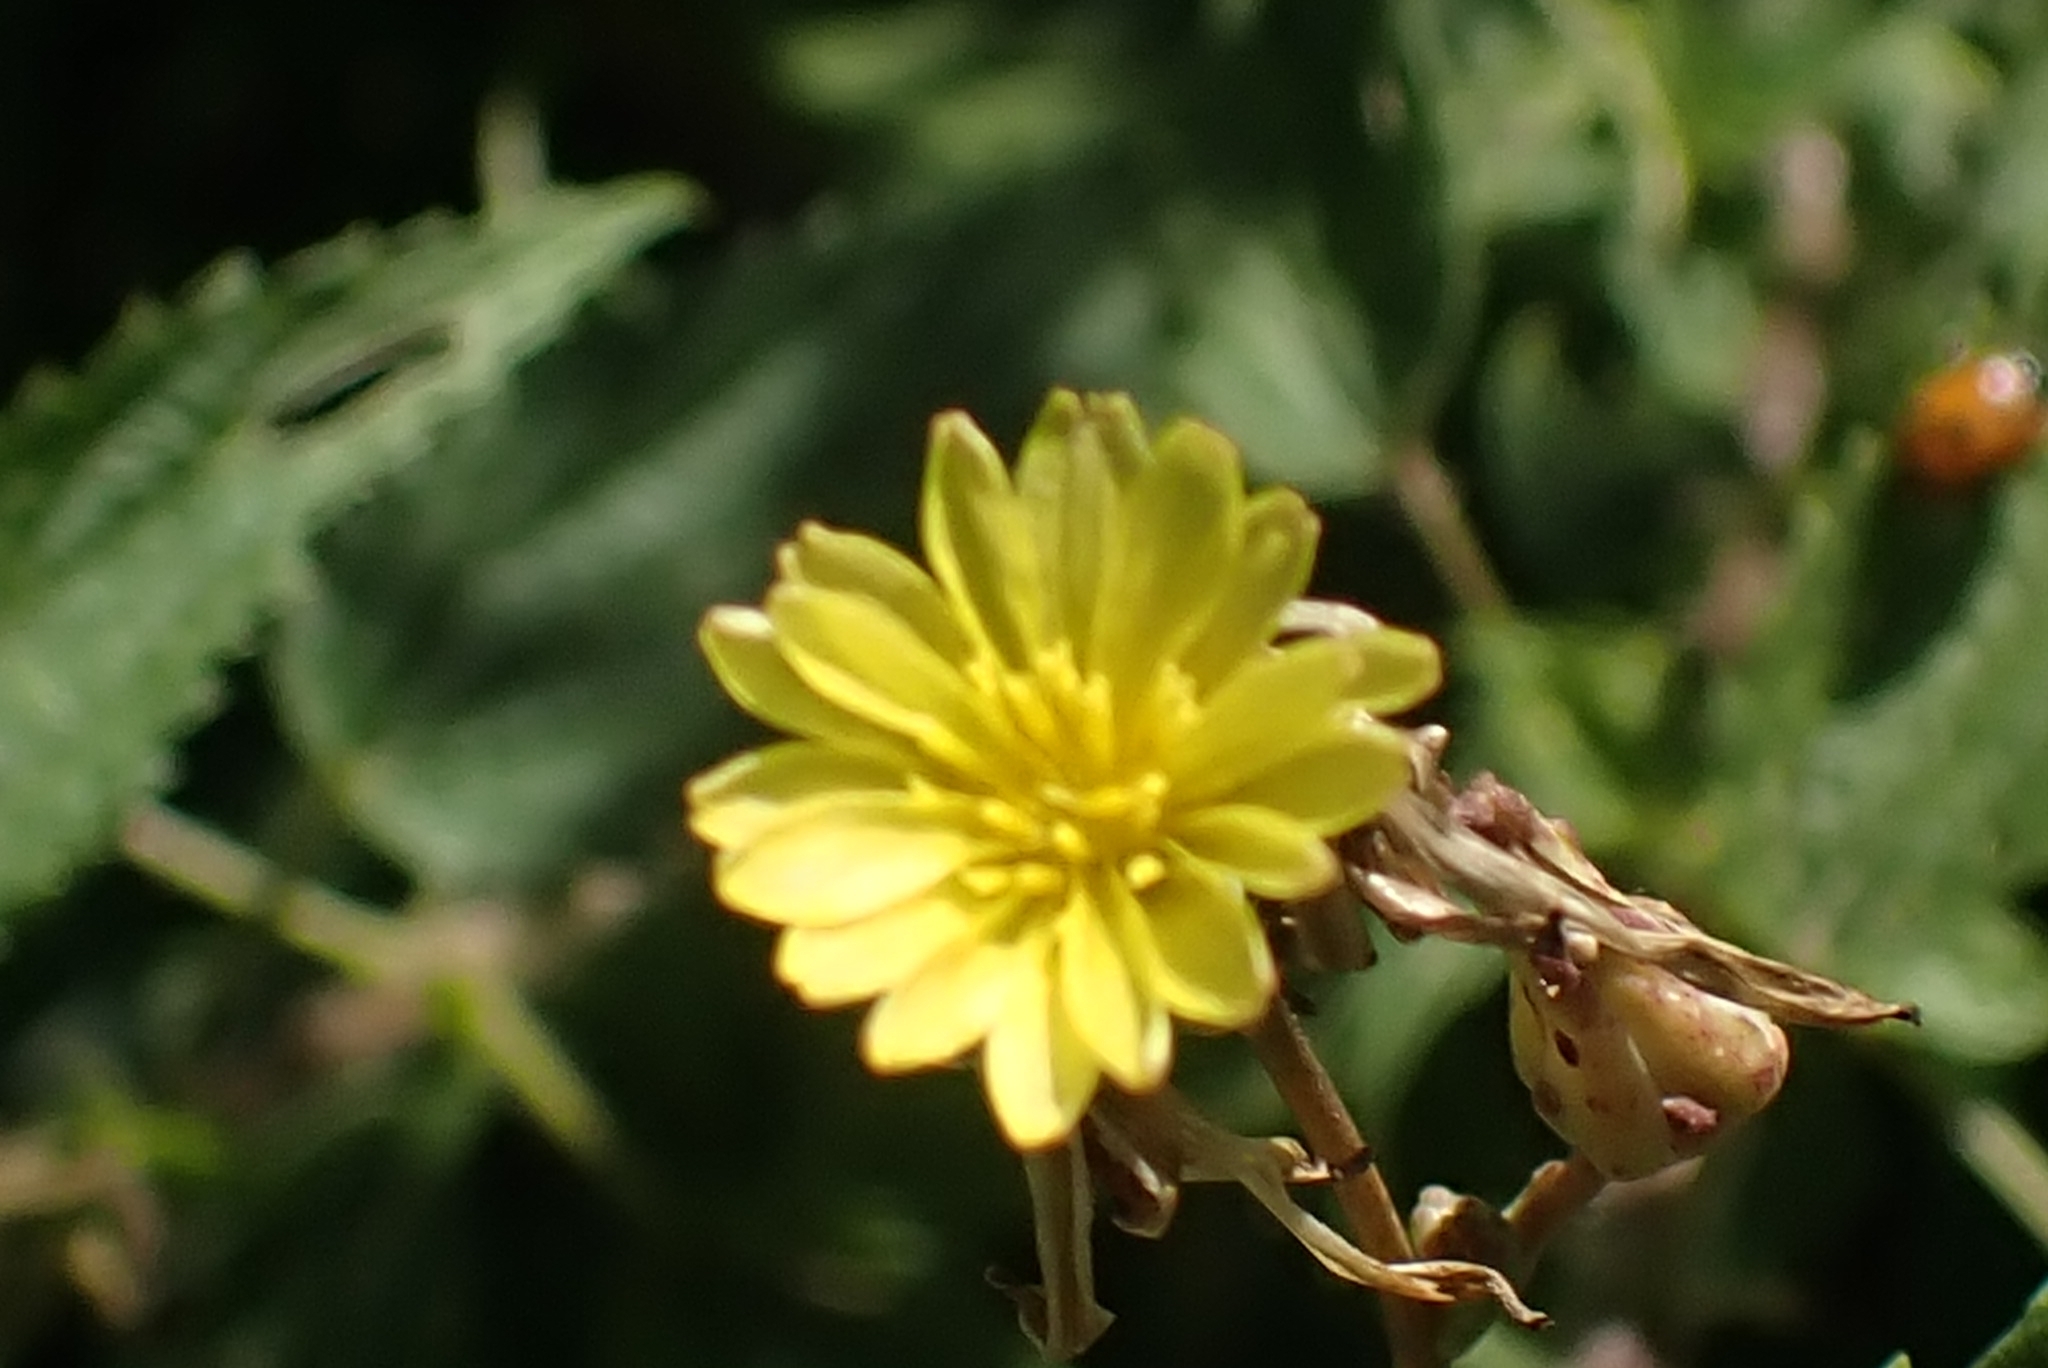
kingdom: Plantae
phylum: Tracheophyta
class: Magnoliopsida
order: Asterales
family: Asteraceae
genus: Lactuca
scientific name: Lactuca serriola
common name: Prickly lettuce
